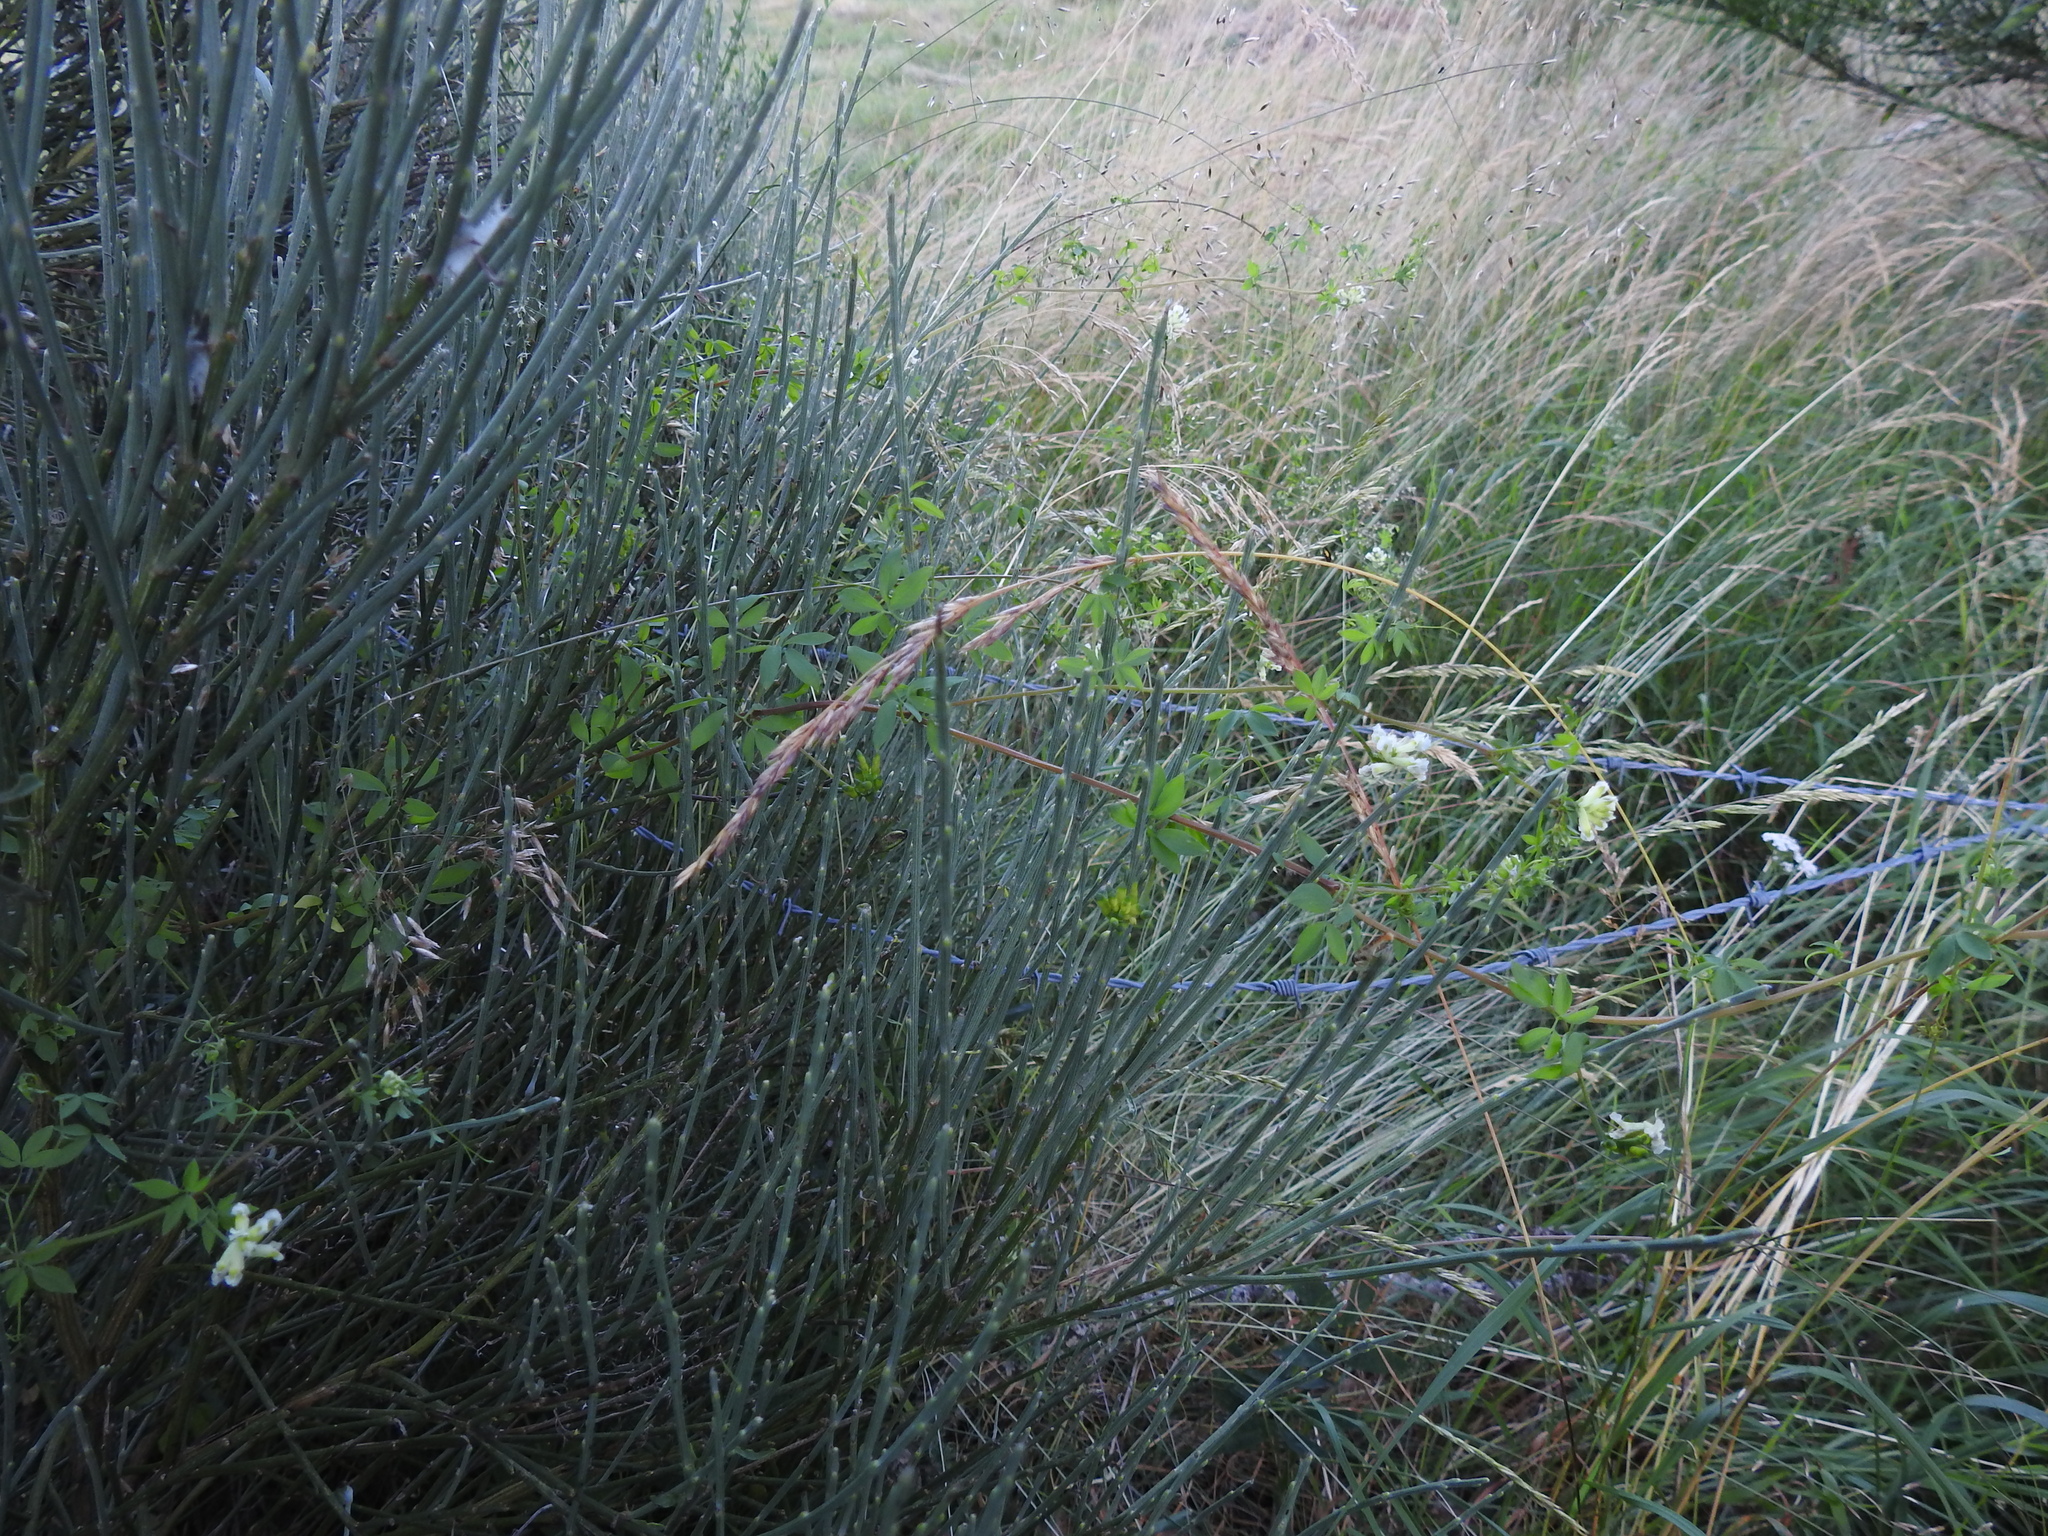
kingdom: Plantae
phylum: Tracheophyta
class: Magnoliopsida
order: Ranunculales
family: Papaveraceae
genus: Ceratocapnos
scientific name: Ceratocapnos claviculata
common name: Climbing corydalis
